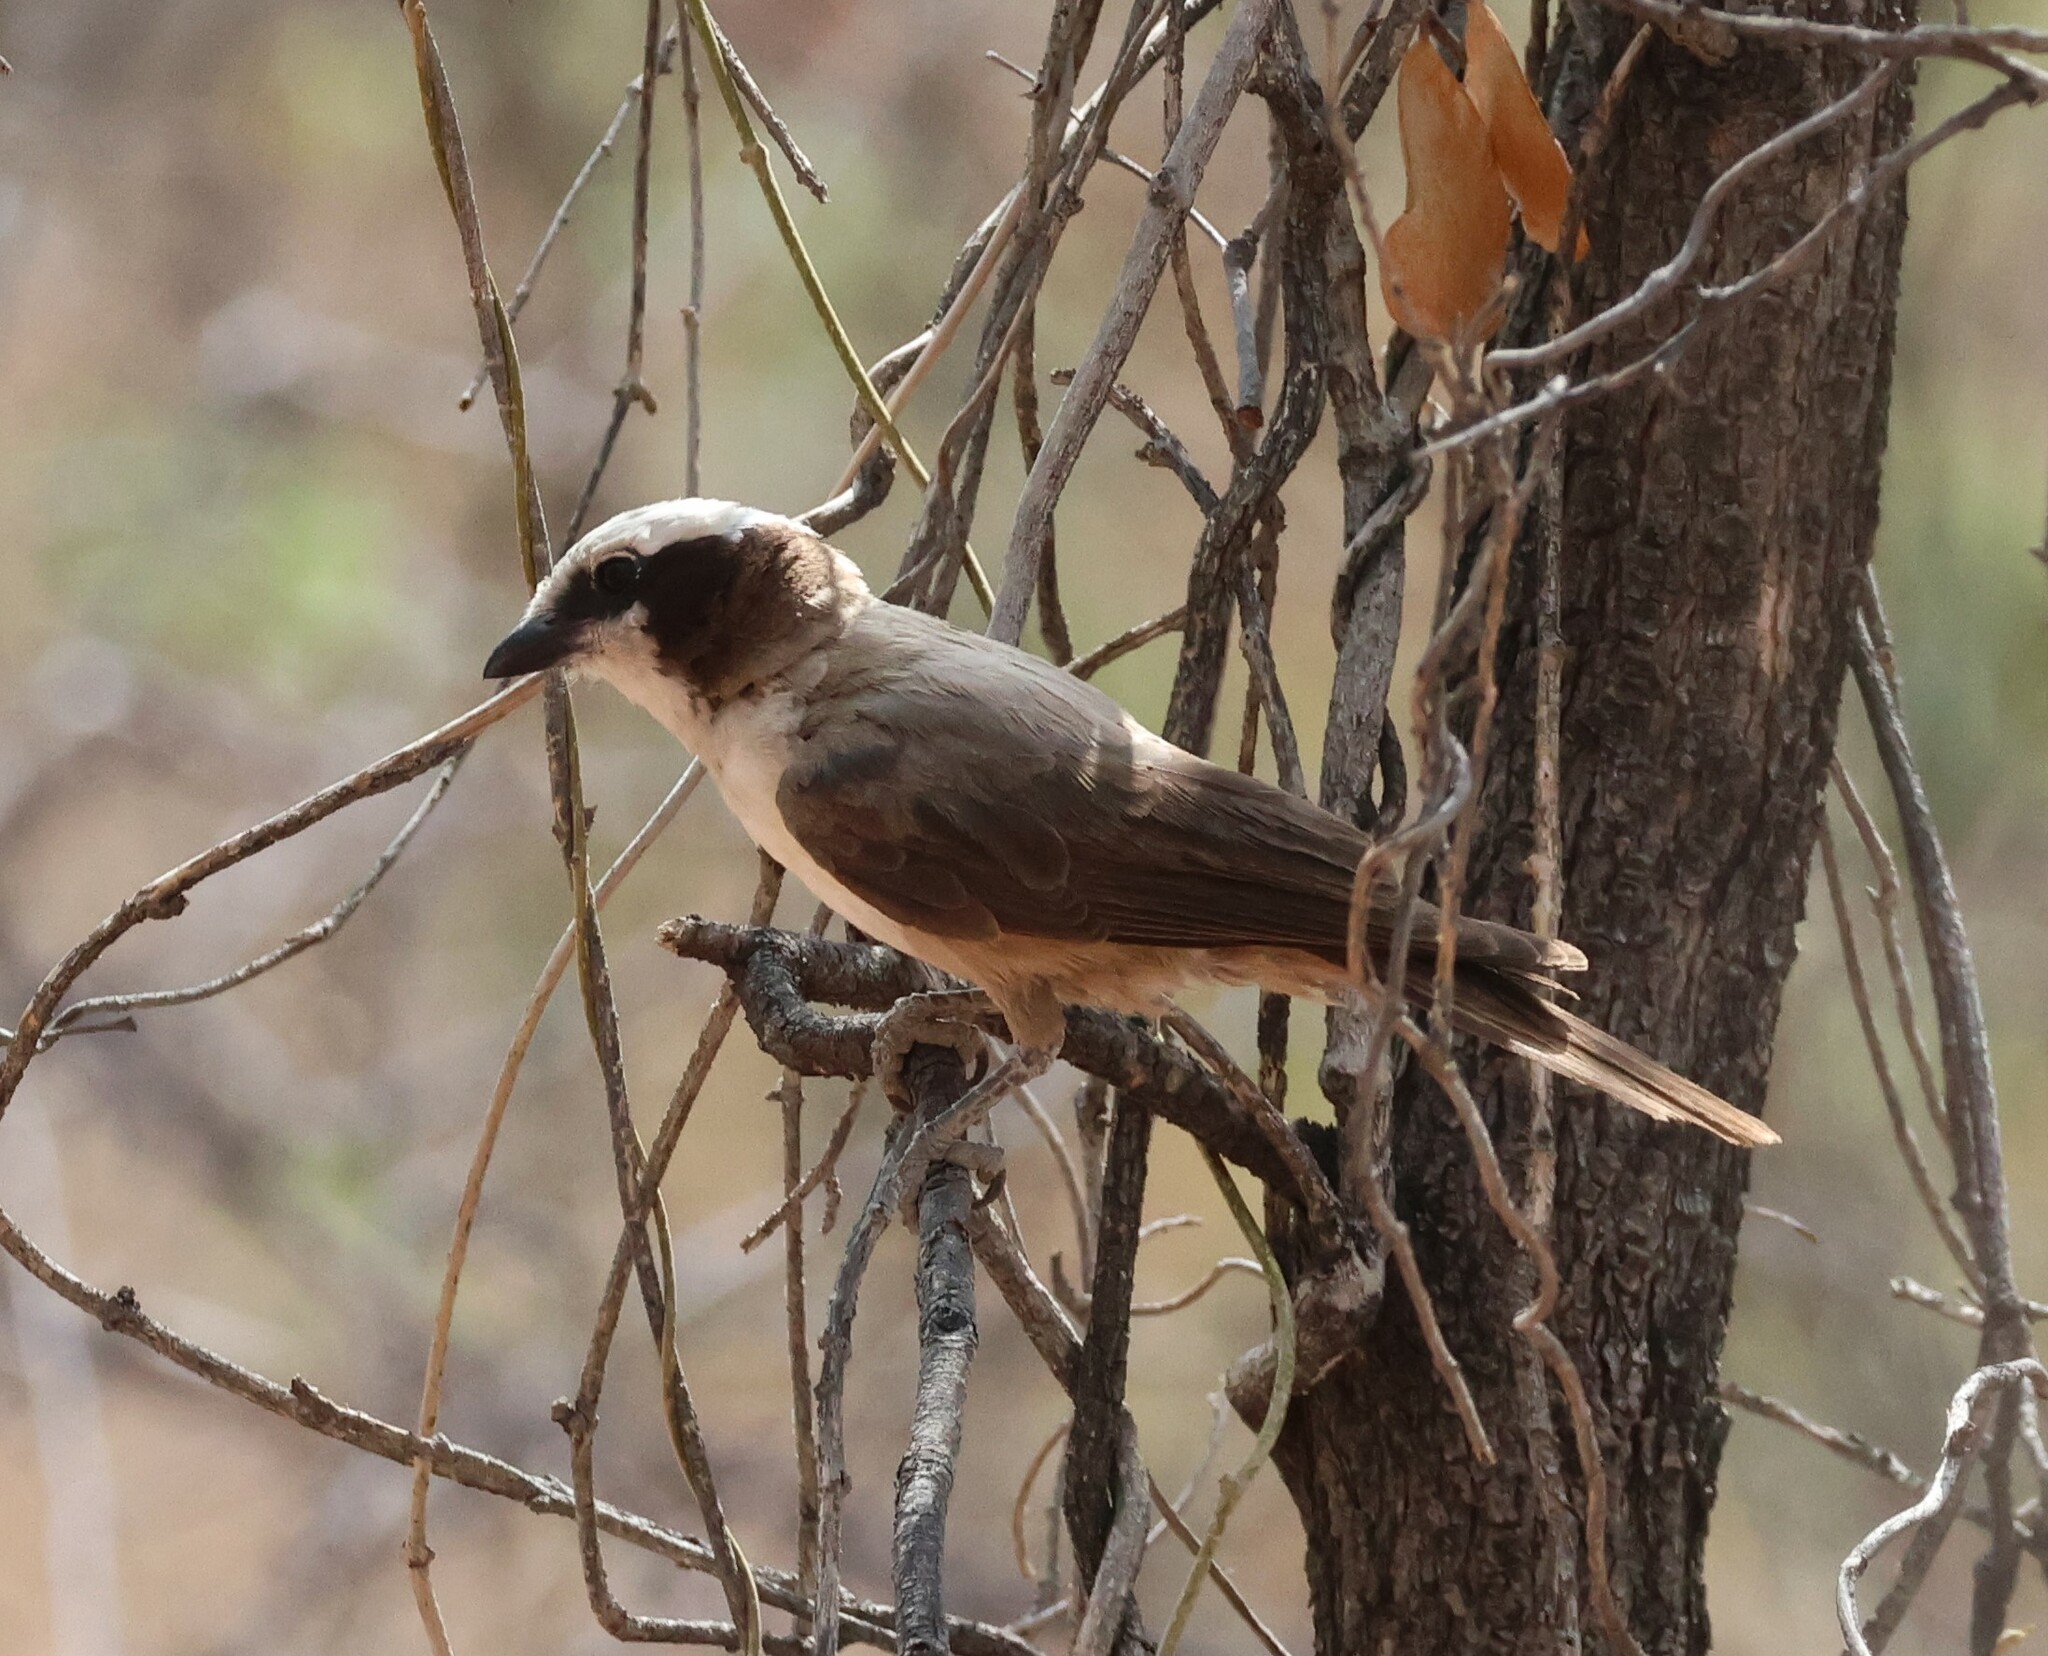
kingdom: Animalia
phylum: Chordata
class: Aves
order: Passeriformes
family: Laniidae
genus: Eurocephalus
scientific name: Eurocephalus anguitimens
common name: Southern white-crowned shrike
